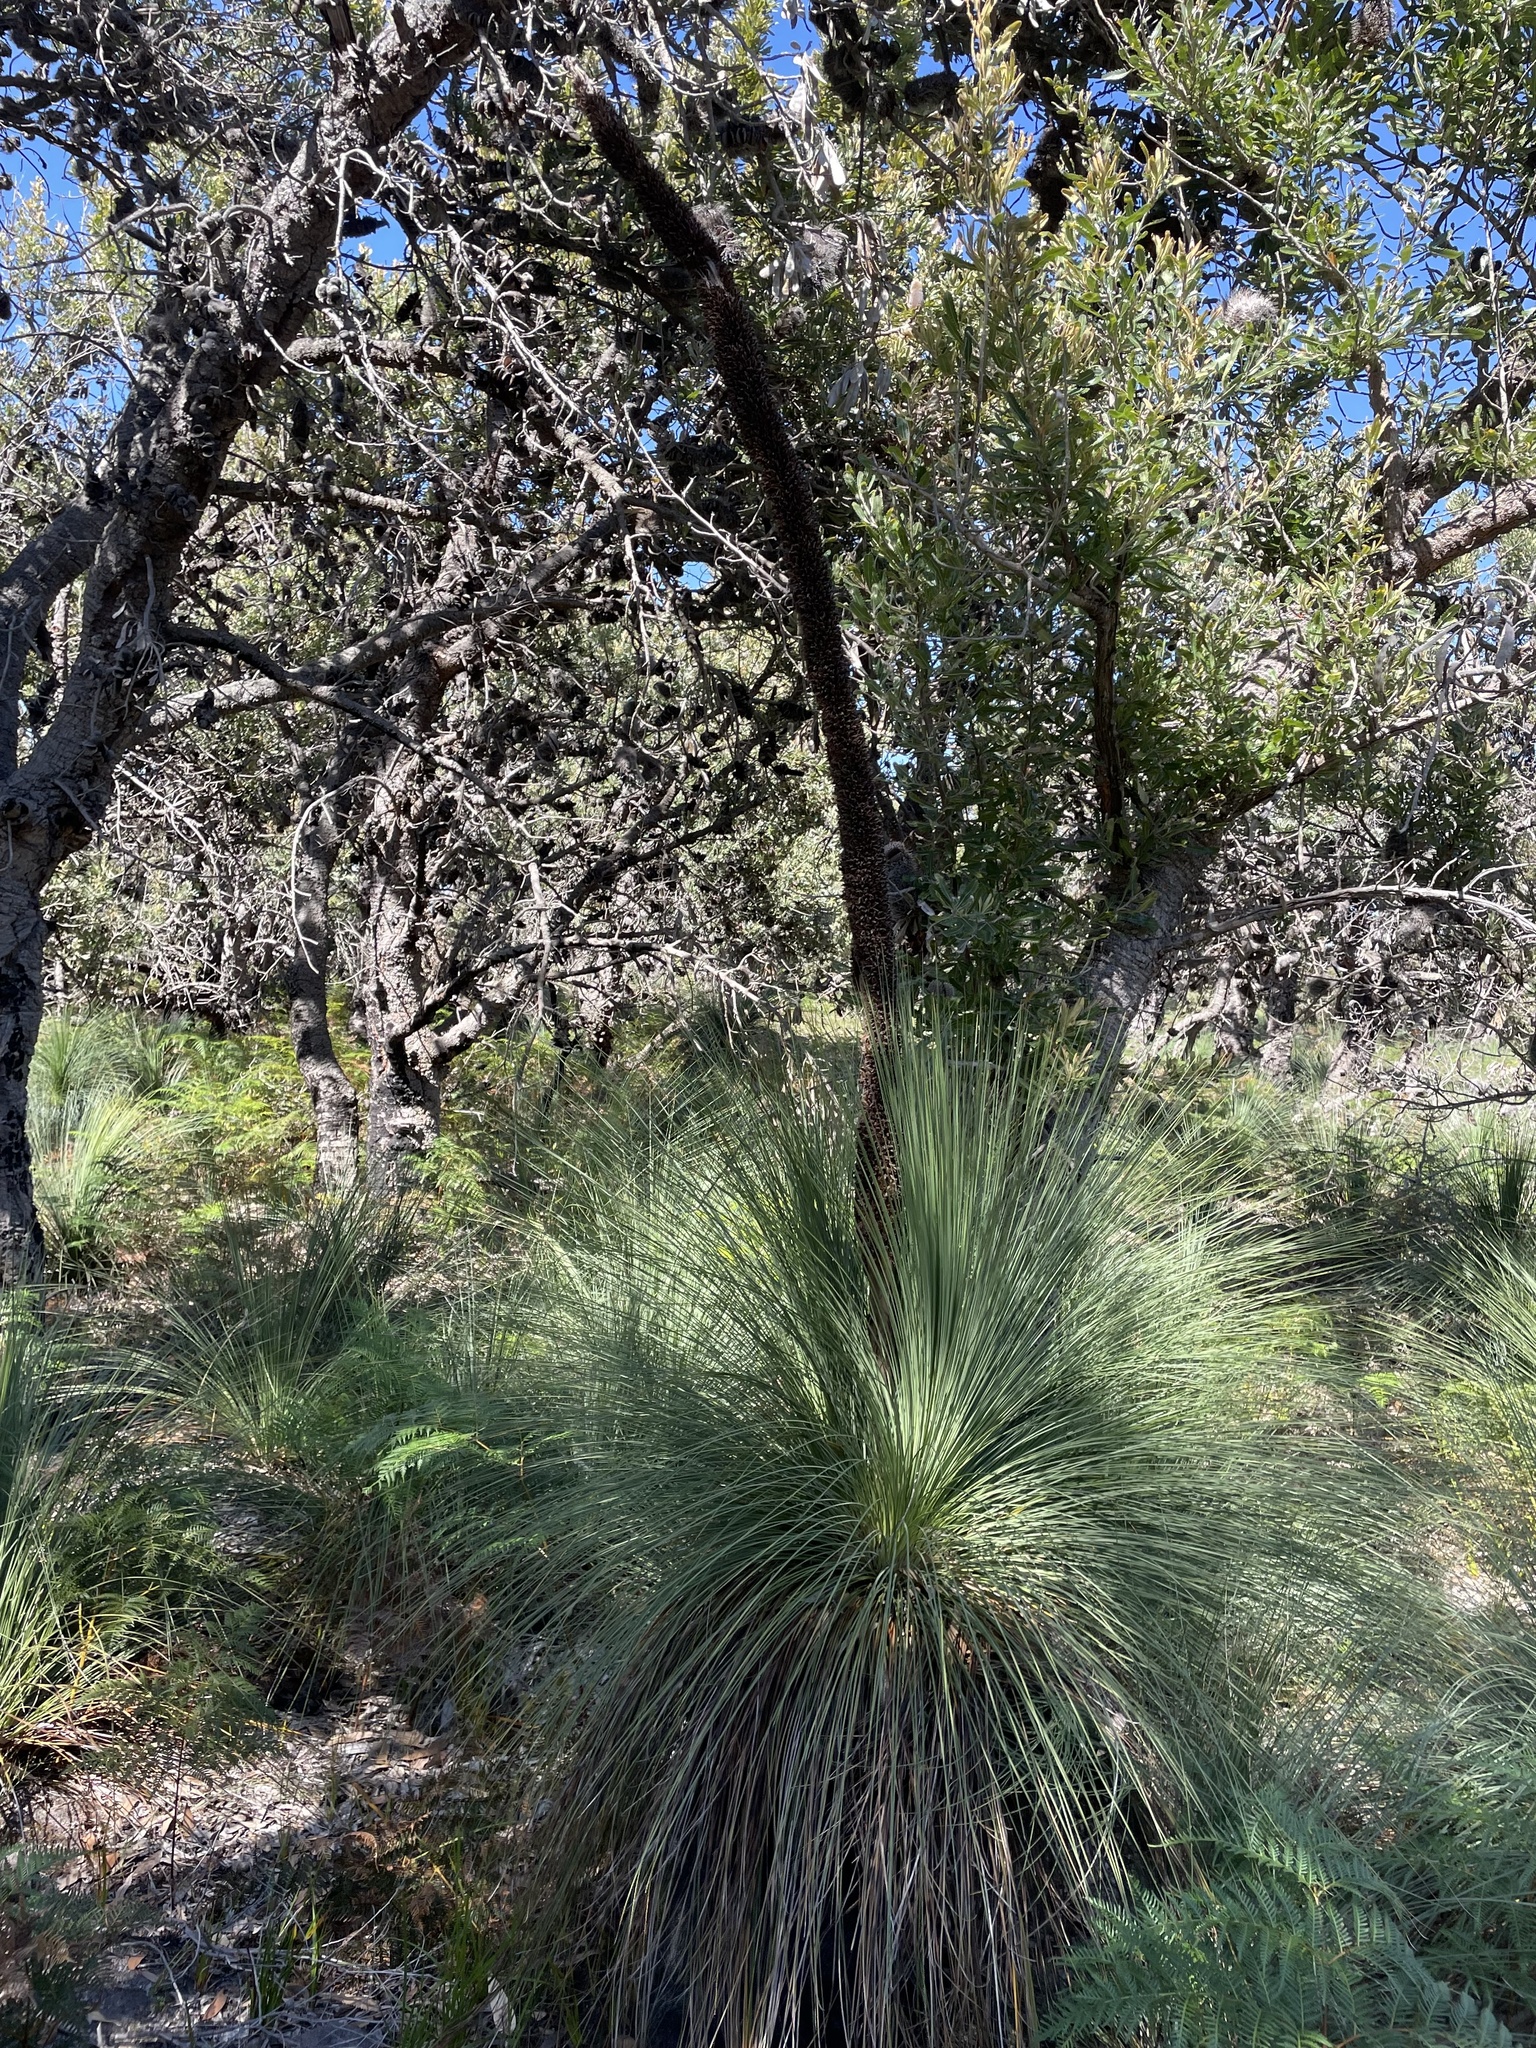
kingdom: Plantae
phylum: Tracheophyta
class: Liliopsida
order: Asparagales
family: Asphodelaceae
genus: Xanthorrhoea
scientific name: Xanthorrhoea australis
